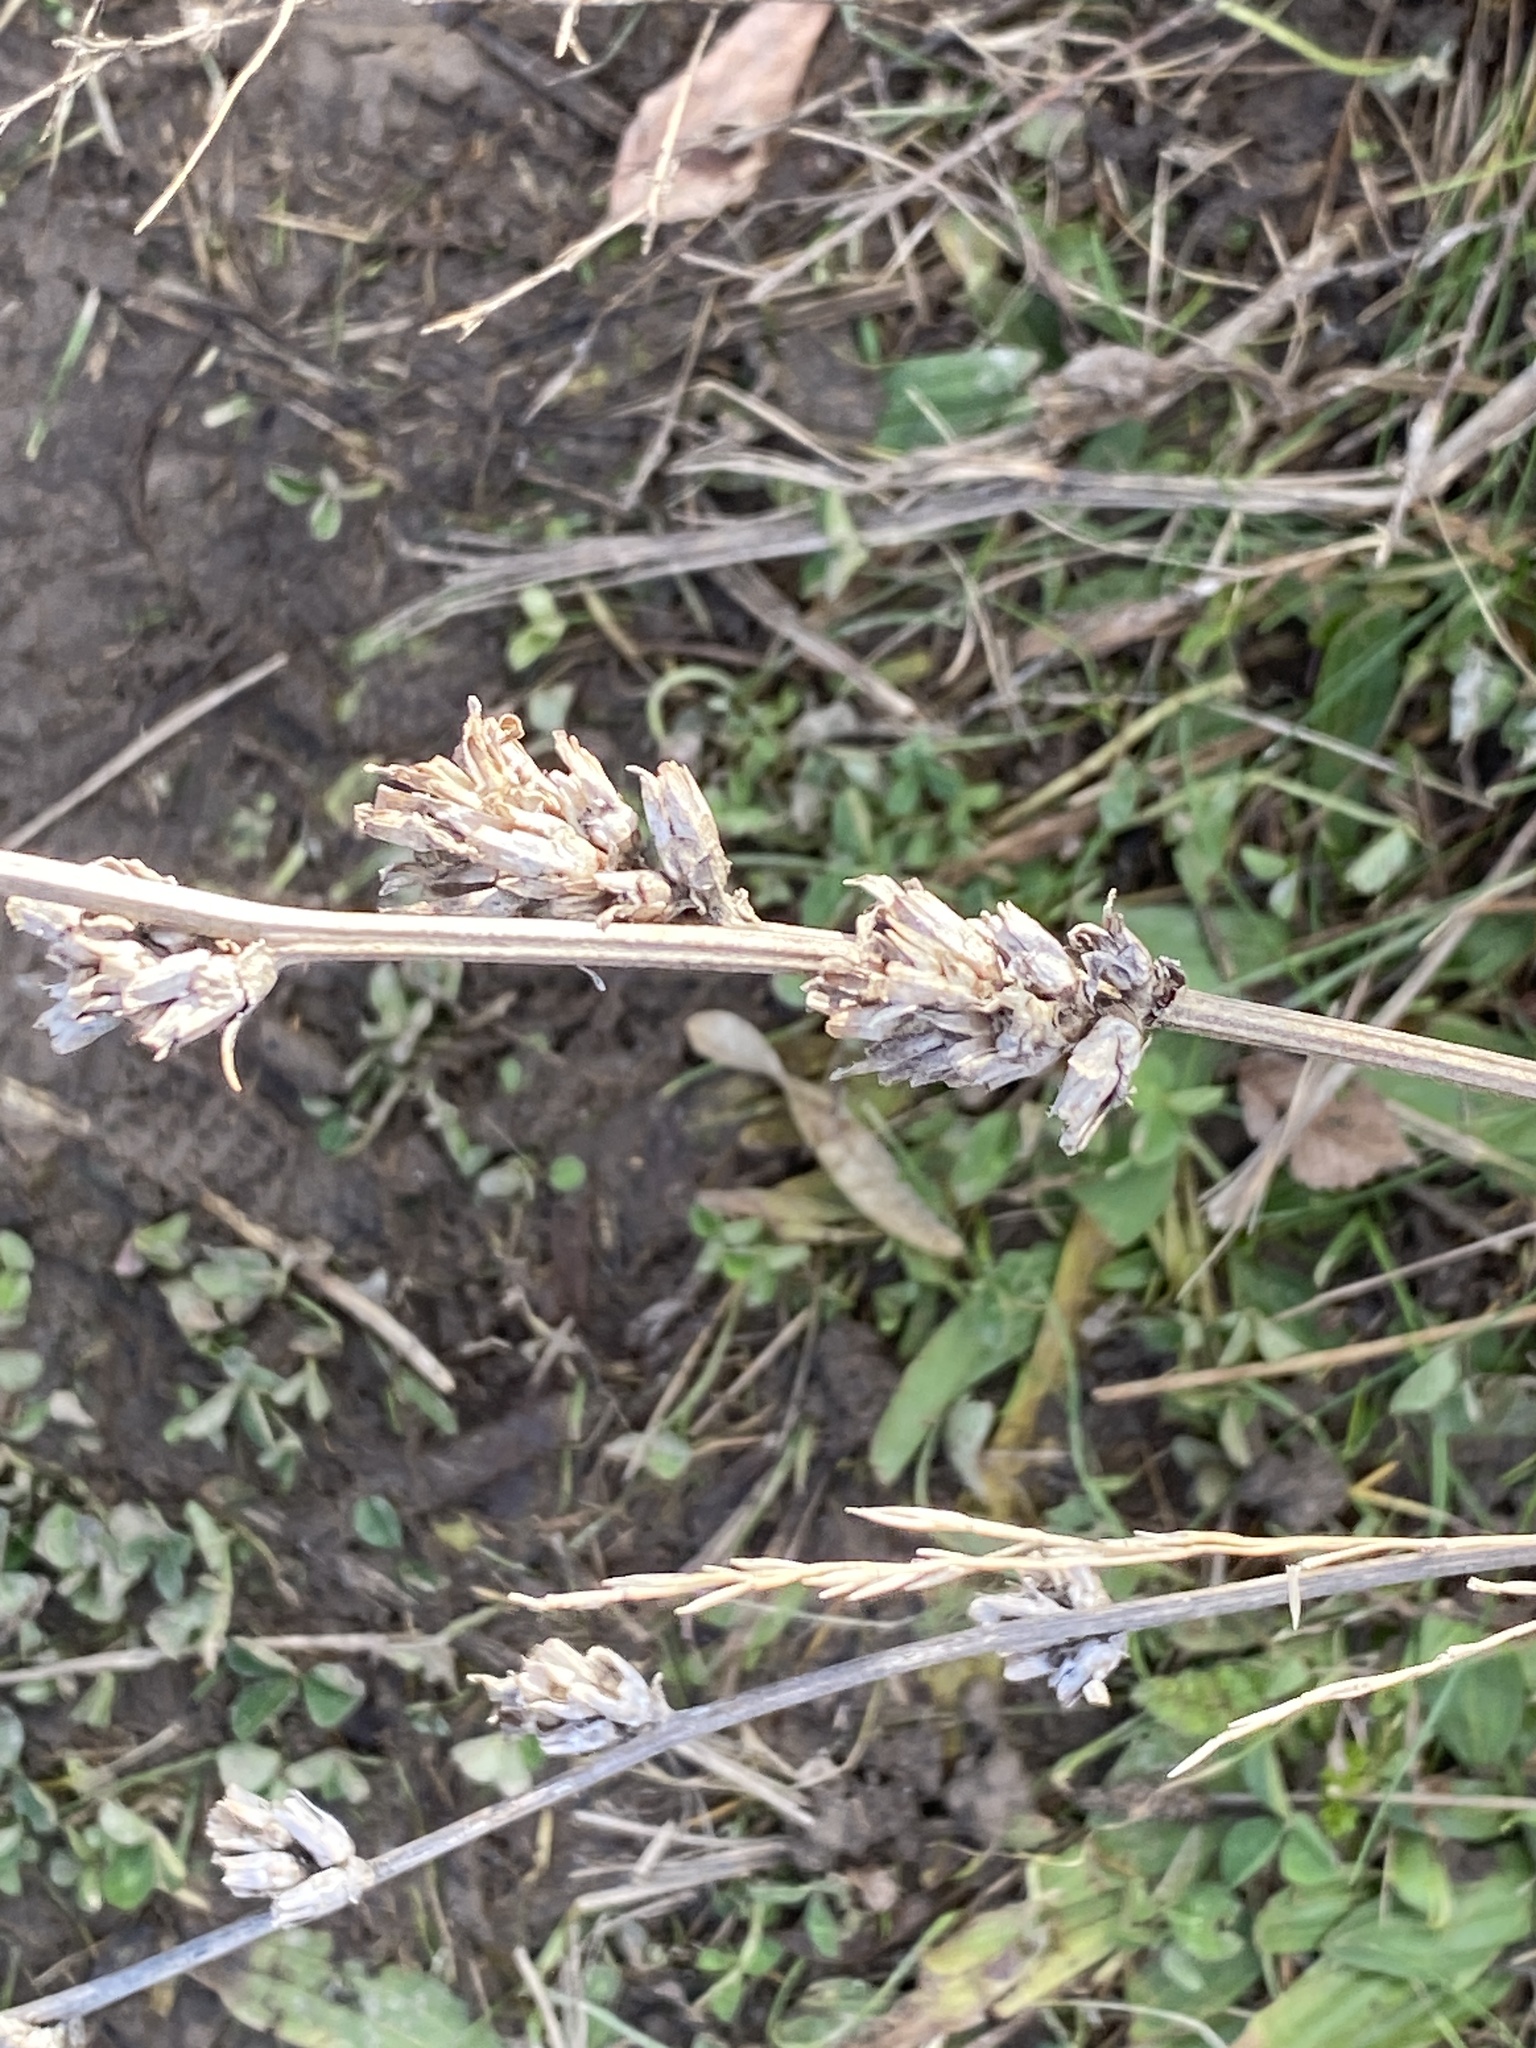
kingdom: Plantae
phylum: Tracheophyta
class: Magnoliopsida
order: Asterales
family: Asteraceae
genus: Cichorium
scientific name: Cichorium intybus
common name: Chicory
